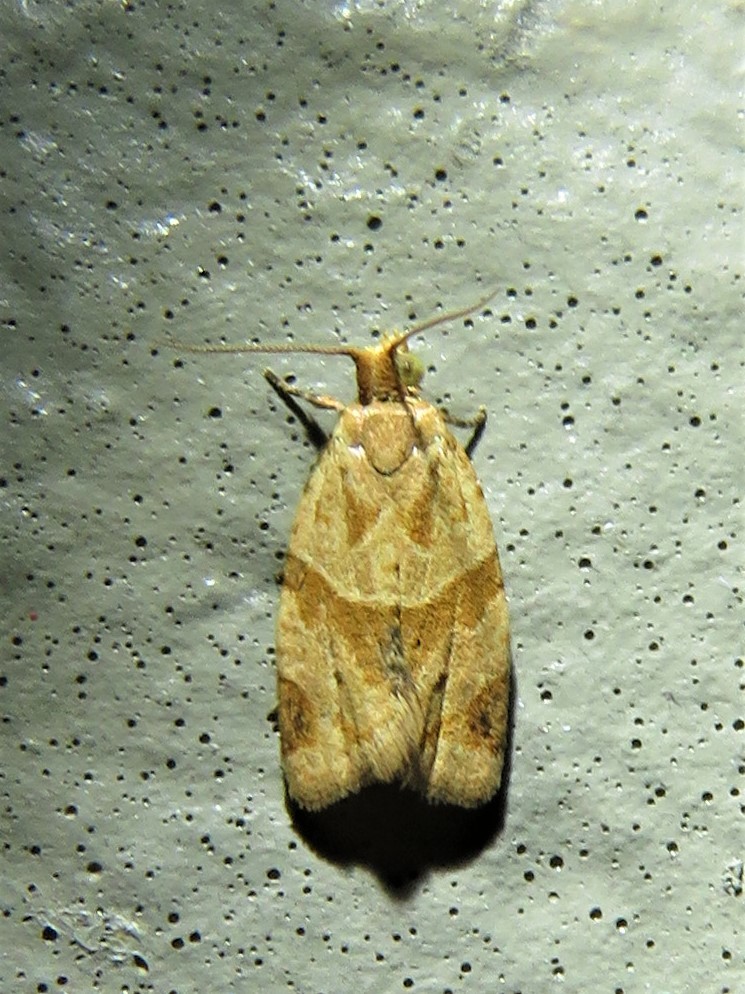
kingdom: Animalia
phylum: Arthropoda
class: Insecta
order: Lepidoptera
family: Tortricidae
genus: Clepsis
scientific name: Clepsis peritana
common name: Garden tortrix
